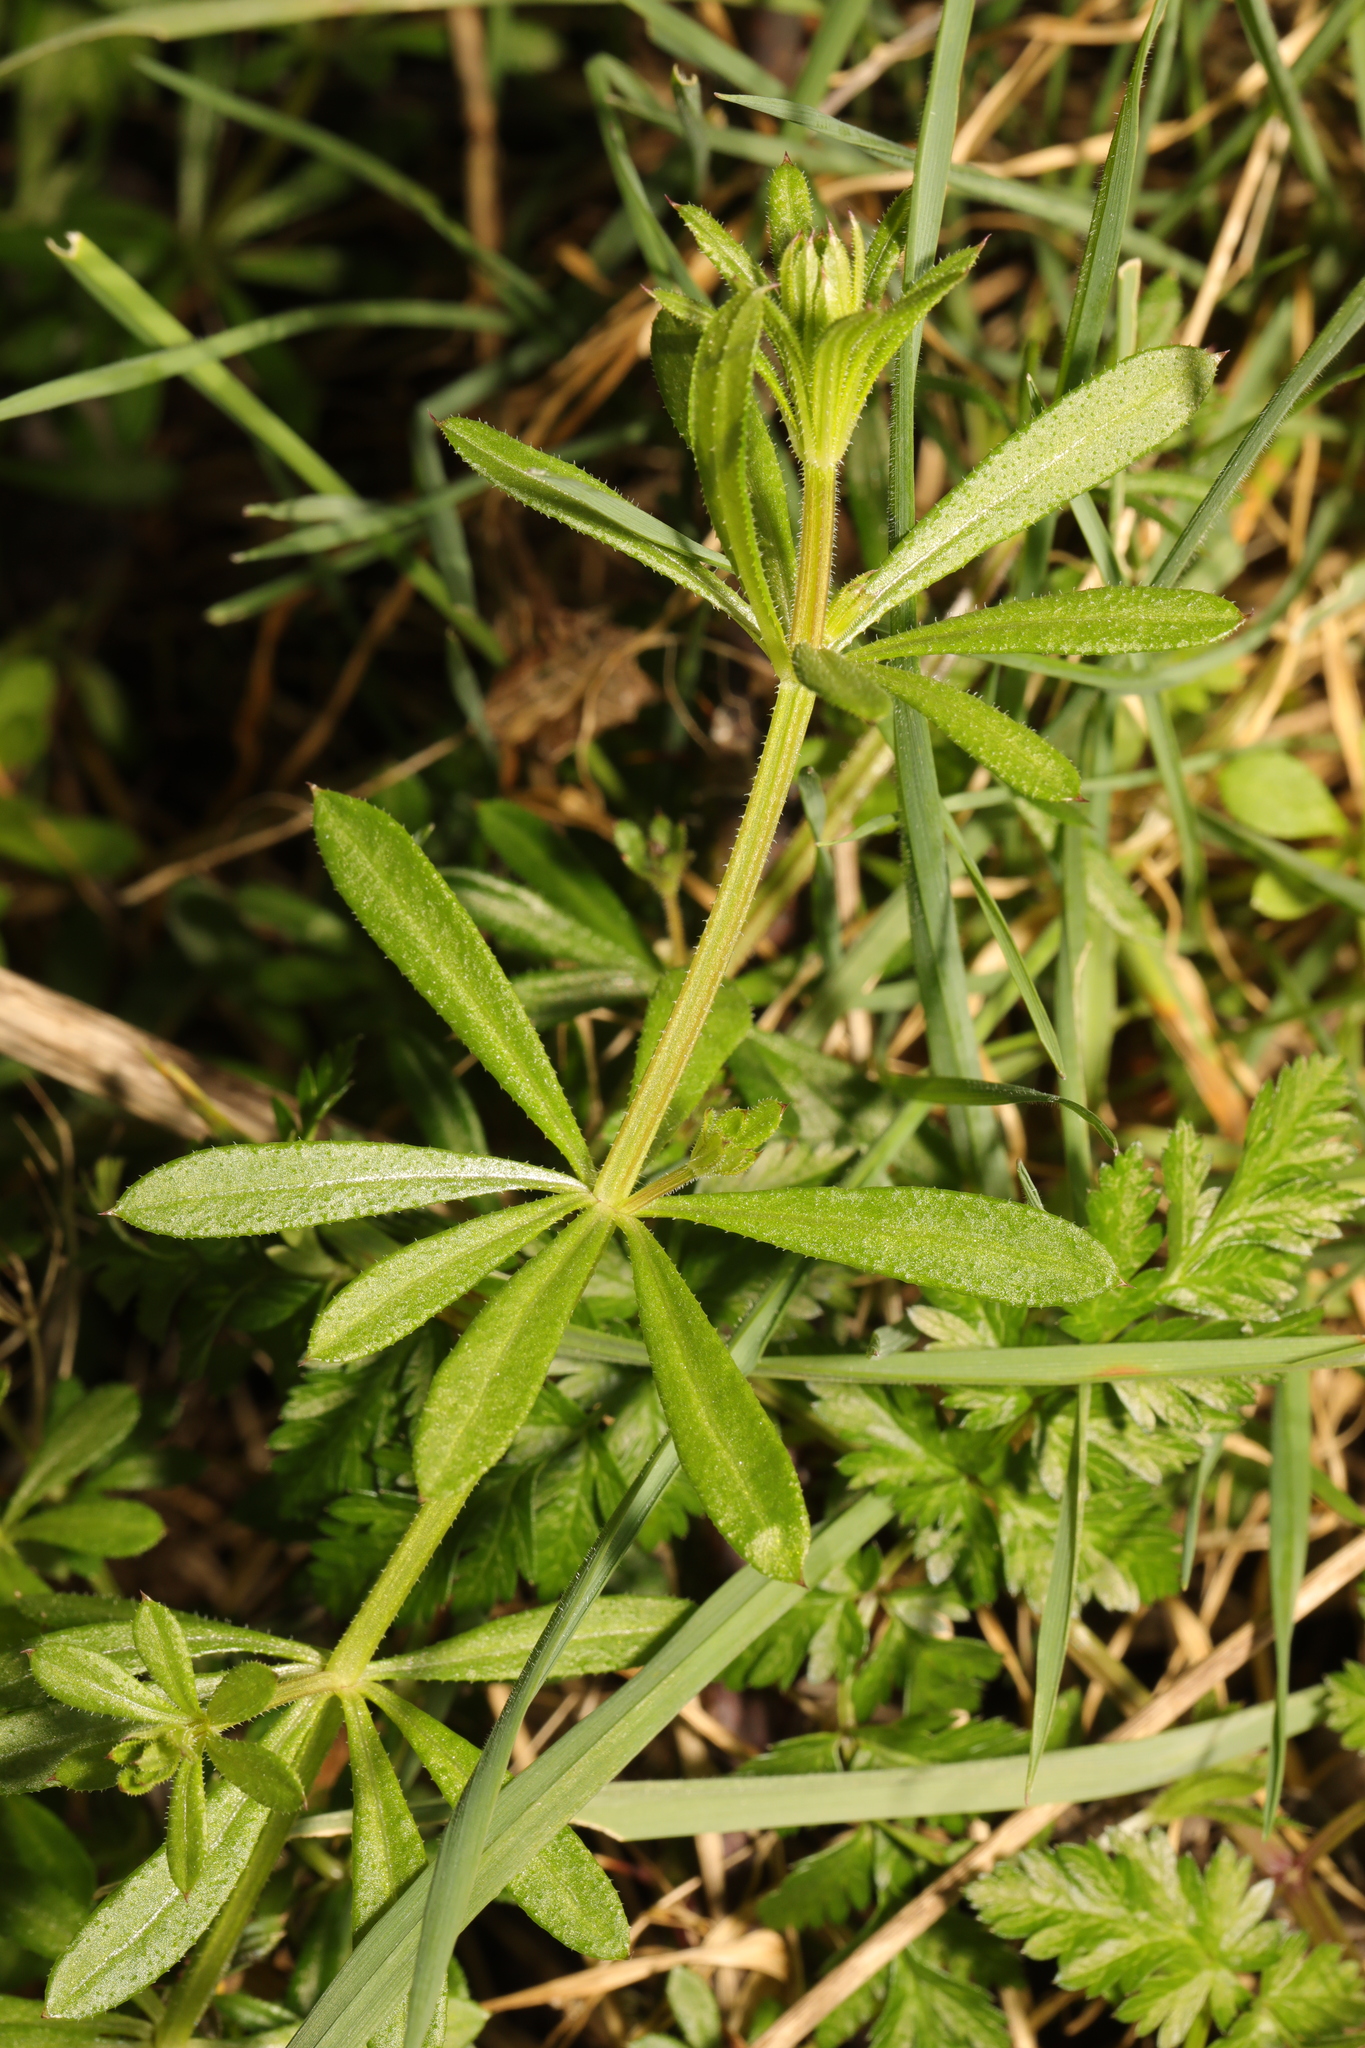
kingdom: Plantae
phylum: Tracheophyta
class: Magnoliopsida
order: Gentianales
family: Rubiaceae
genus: Galium
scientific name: Galium aparine
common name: Cleavers
